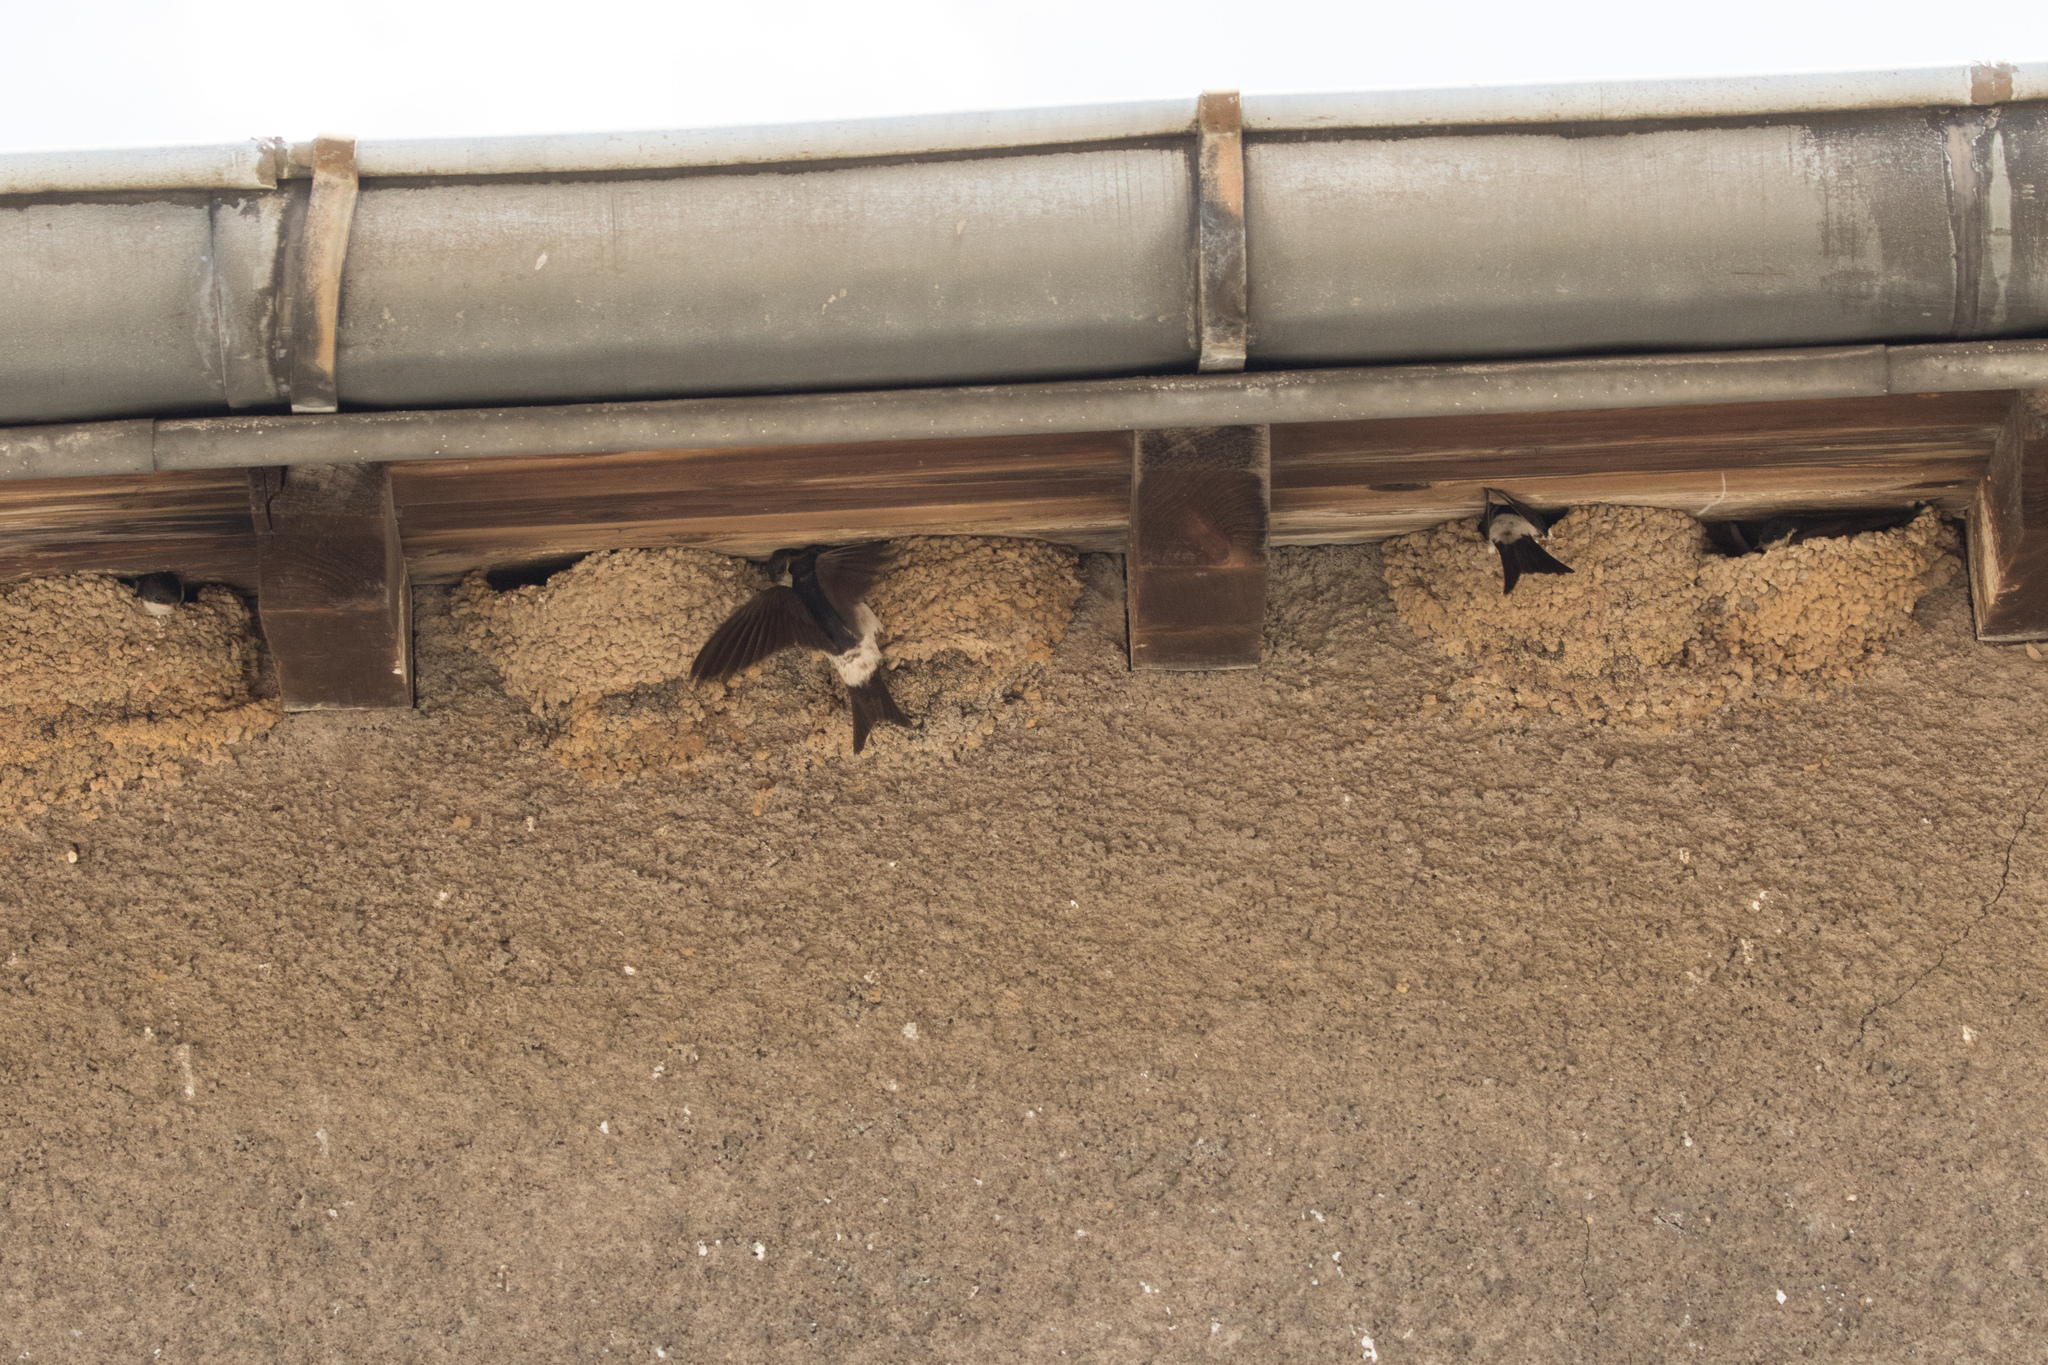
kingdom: Animalia
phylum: Chordata
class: Aves
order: Passeriformes
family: Hirundinidae
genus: Delichon
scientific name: Delichon urbicum
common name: Common house martin
